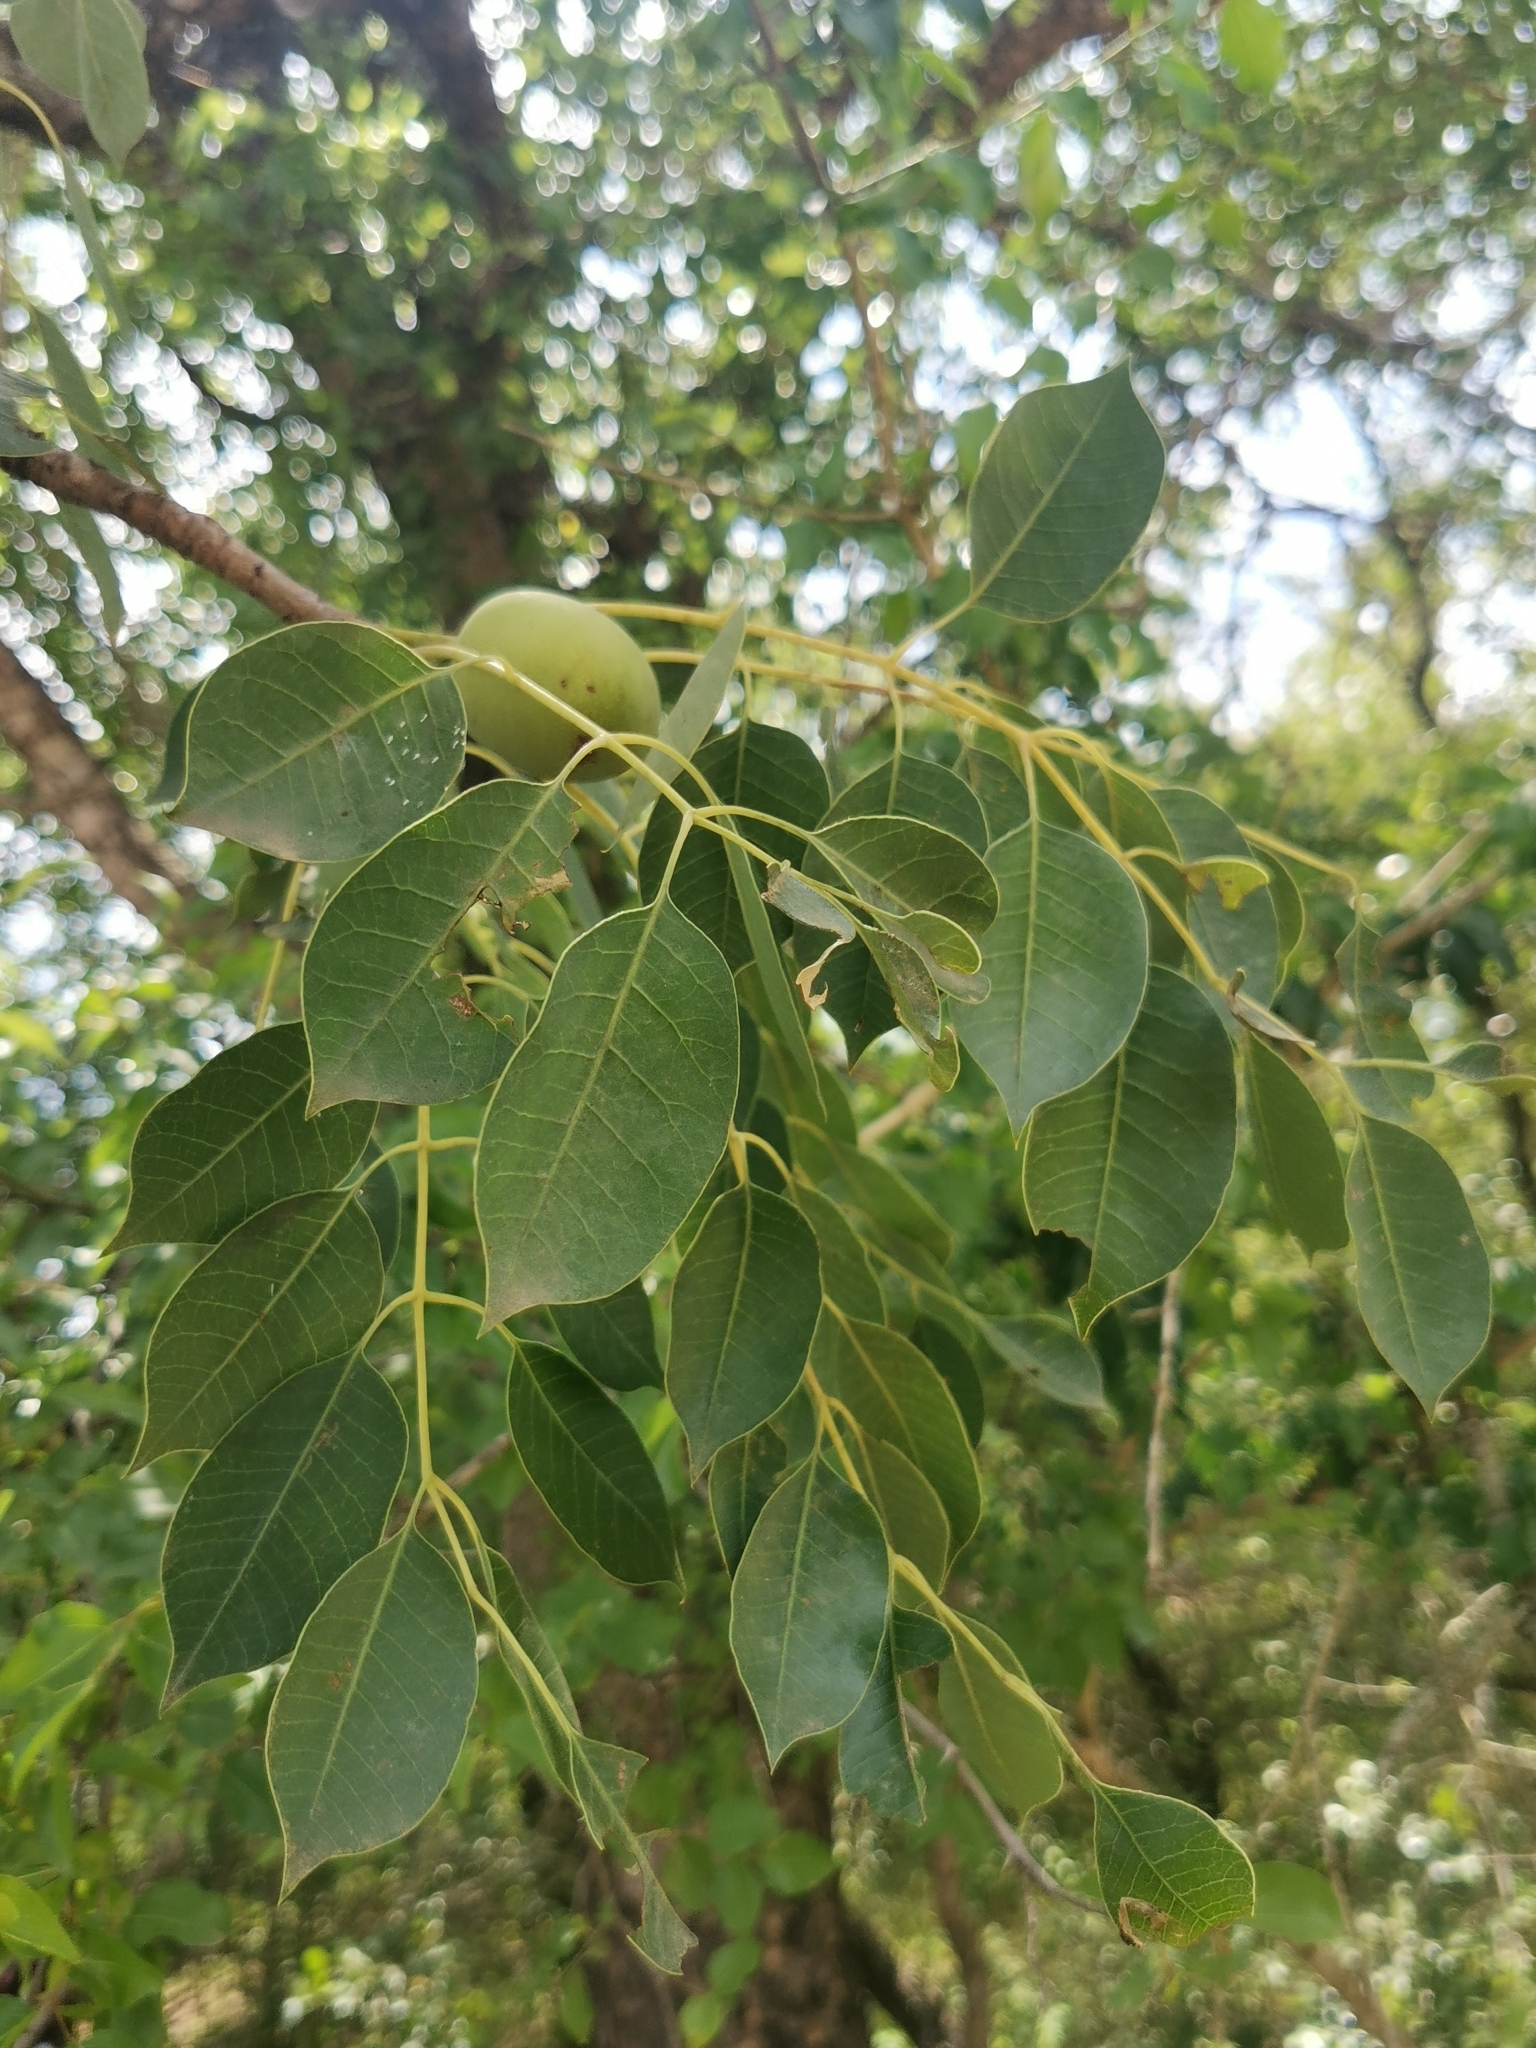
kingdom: Plantae
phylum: Tracheophyta
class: Magnoliopsida
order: Sapindales
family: Anacardiaceae
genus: Sclerocarya
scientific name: Sclerocarya birrea
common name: Marula
